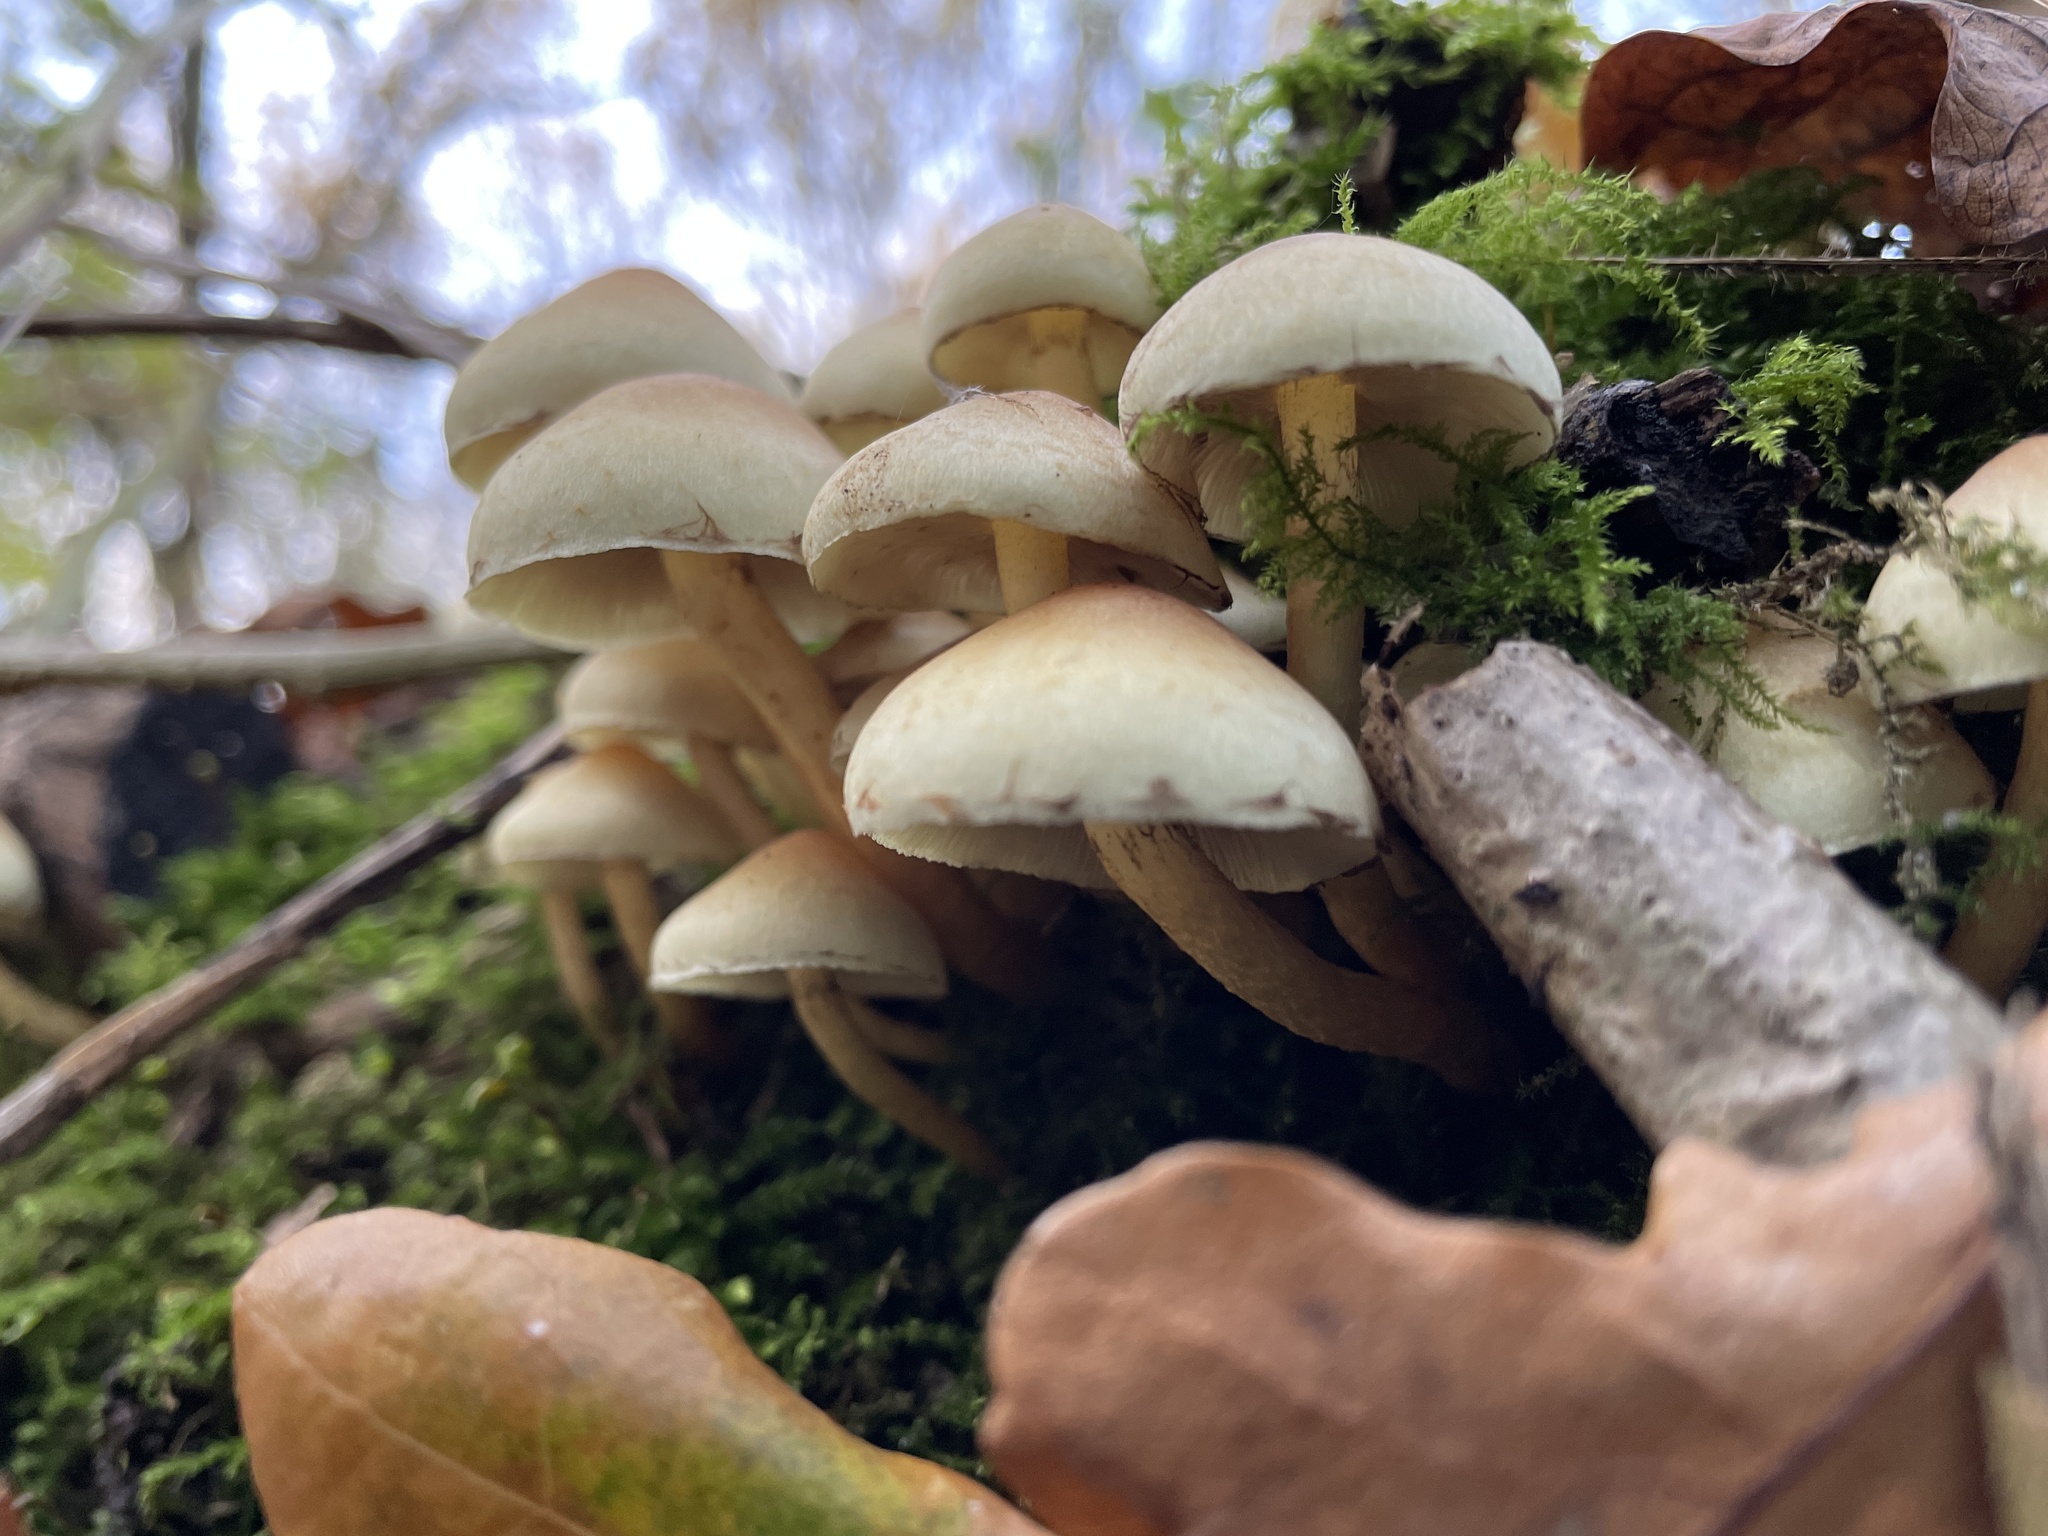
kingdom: Fungi
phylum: Basidiomycota
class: Agaricomycetes
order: Agaricales
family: Strophariaceae
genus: Hypholoma
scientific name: Hypholoma fasciculare
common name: Sulphur tuft
